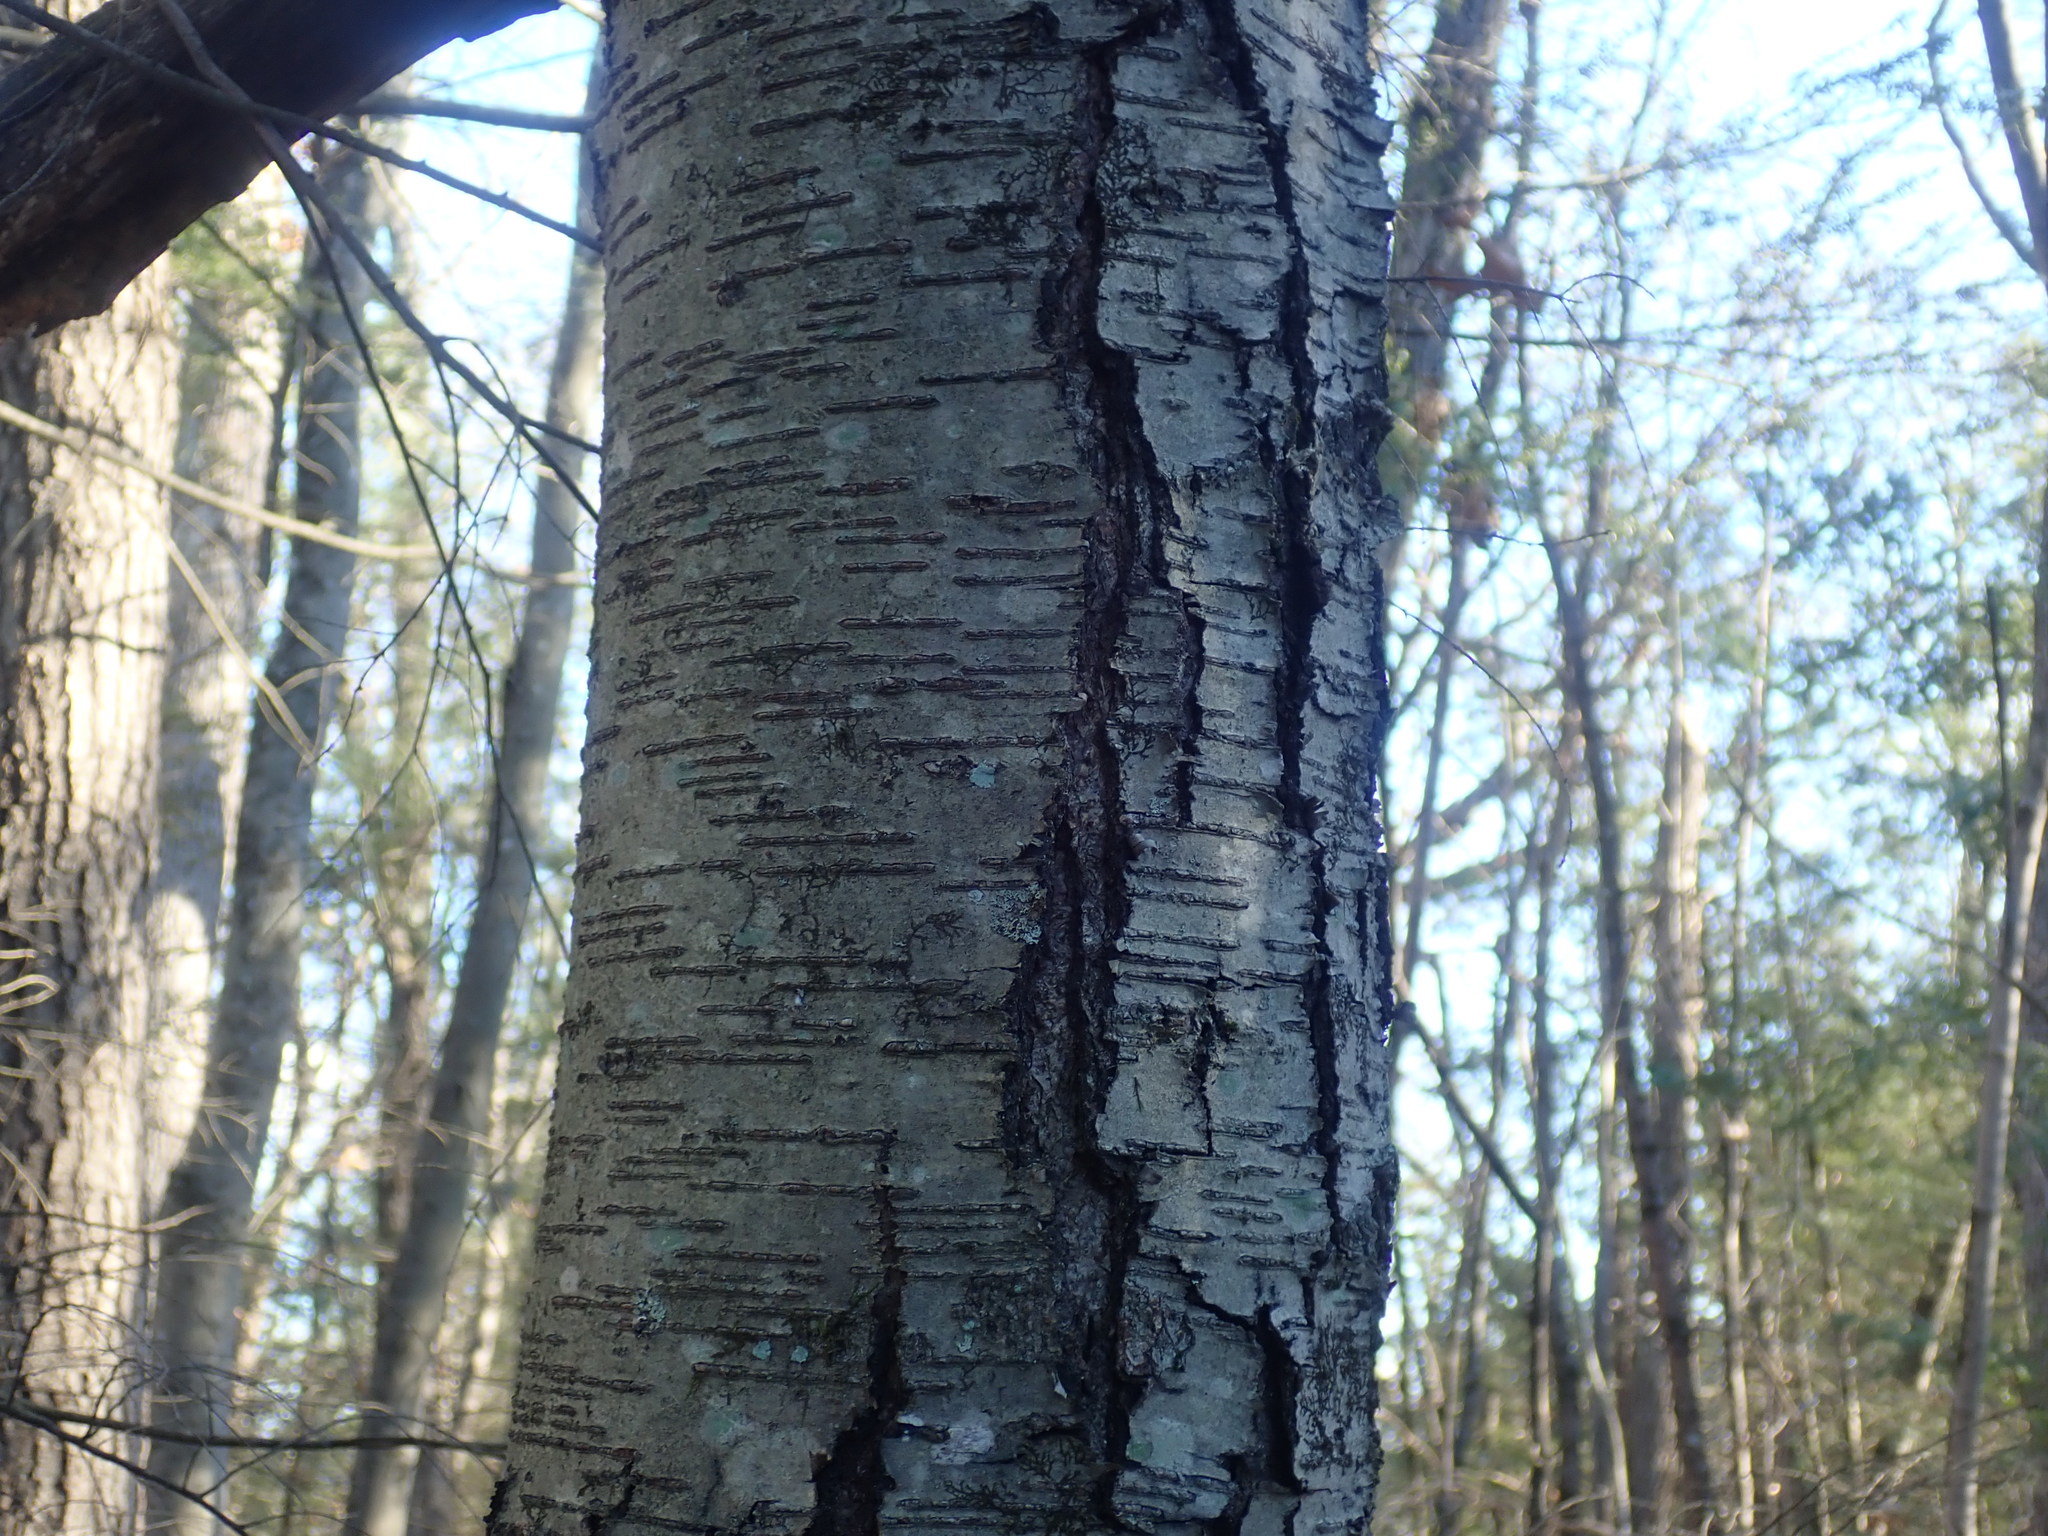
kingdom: Plantae
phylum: Tracheophyta
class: Magnoliopsida
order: Fagales
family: Betulaceae
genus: Betula
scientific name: Betula lenta
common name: Black birch
